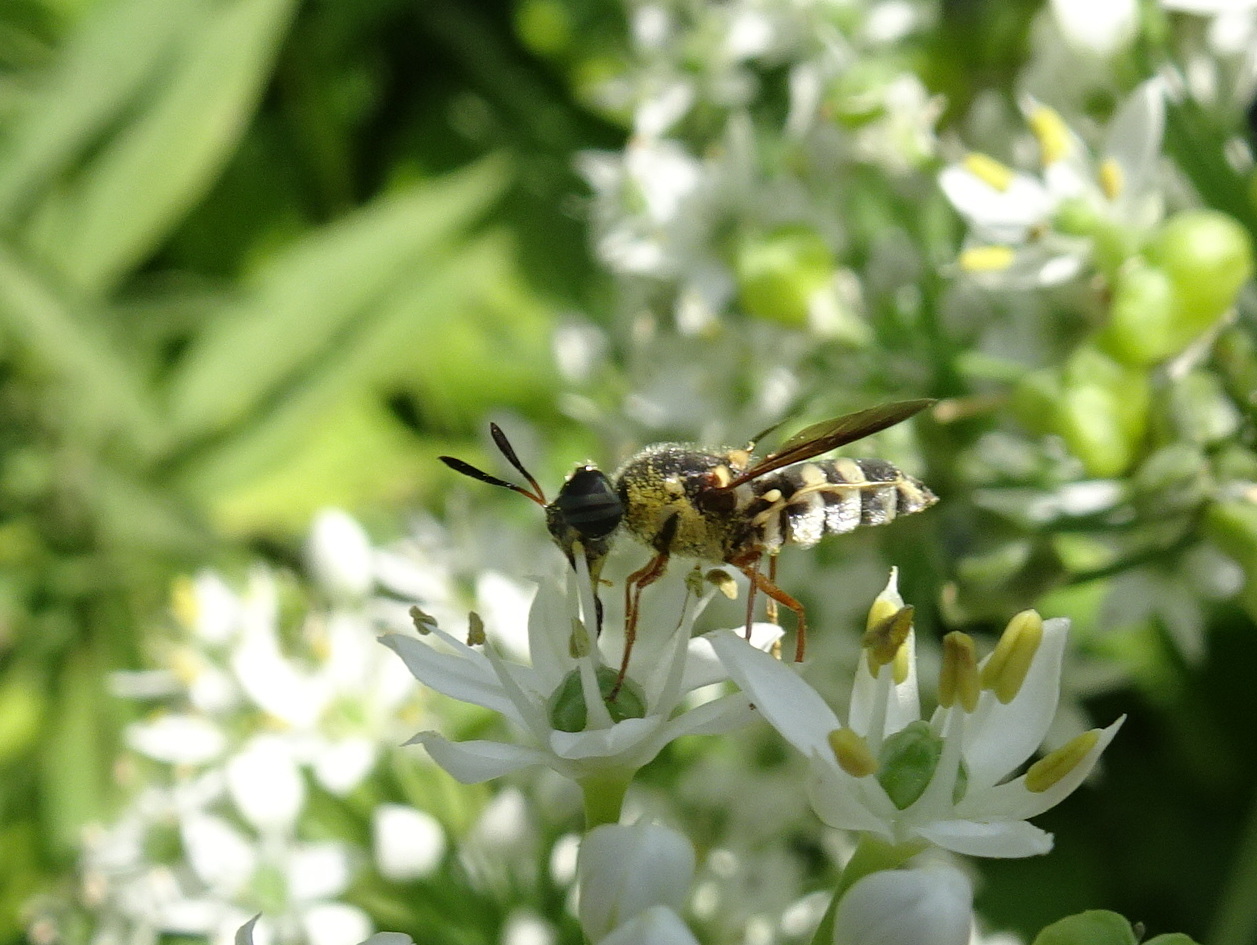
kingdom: Animalia
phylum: Arthropoda
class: Insecta
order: Diptera
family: Stratiomyidae
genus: Hoplitimyia
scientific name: Hoplitimyia constans
